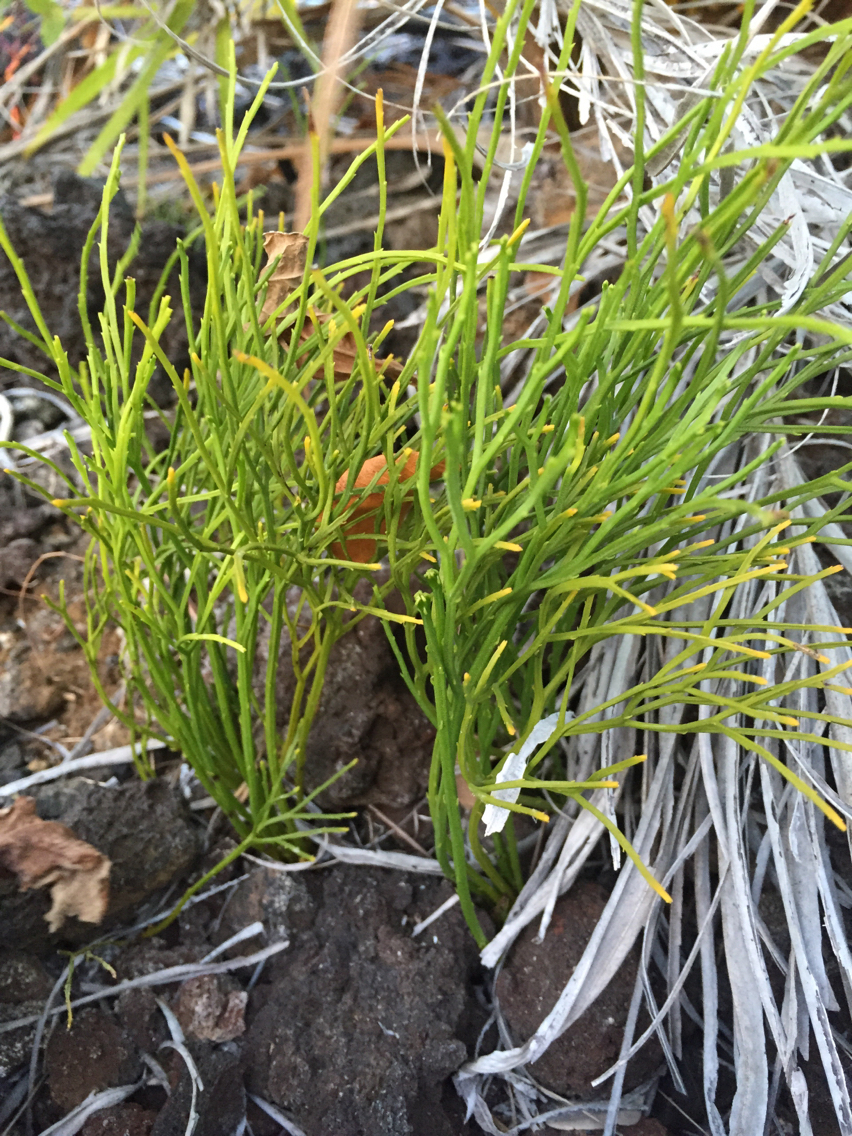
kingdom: Plantae
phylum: Tracheophyta
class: Polypodiopsida
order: Psilotales
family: Psilotaceae
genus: Psilotum
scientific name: Psilotum nudum
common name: Skeleton fork fern
